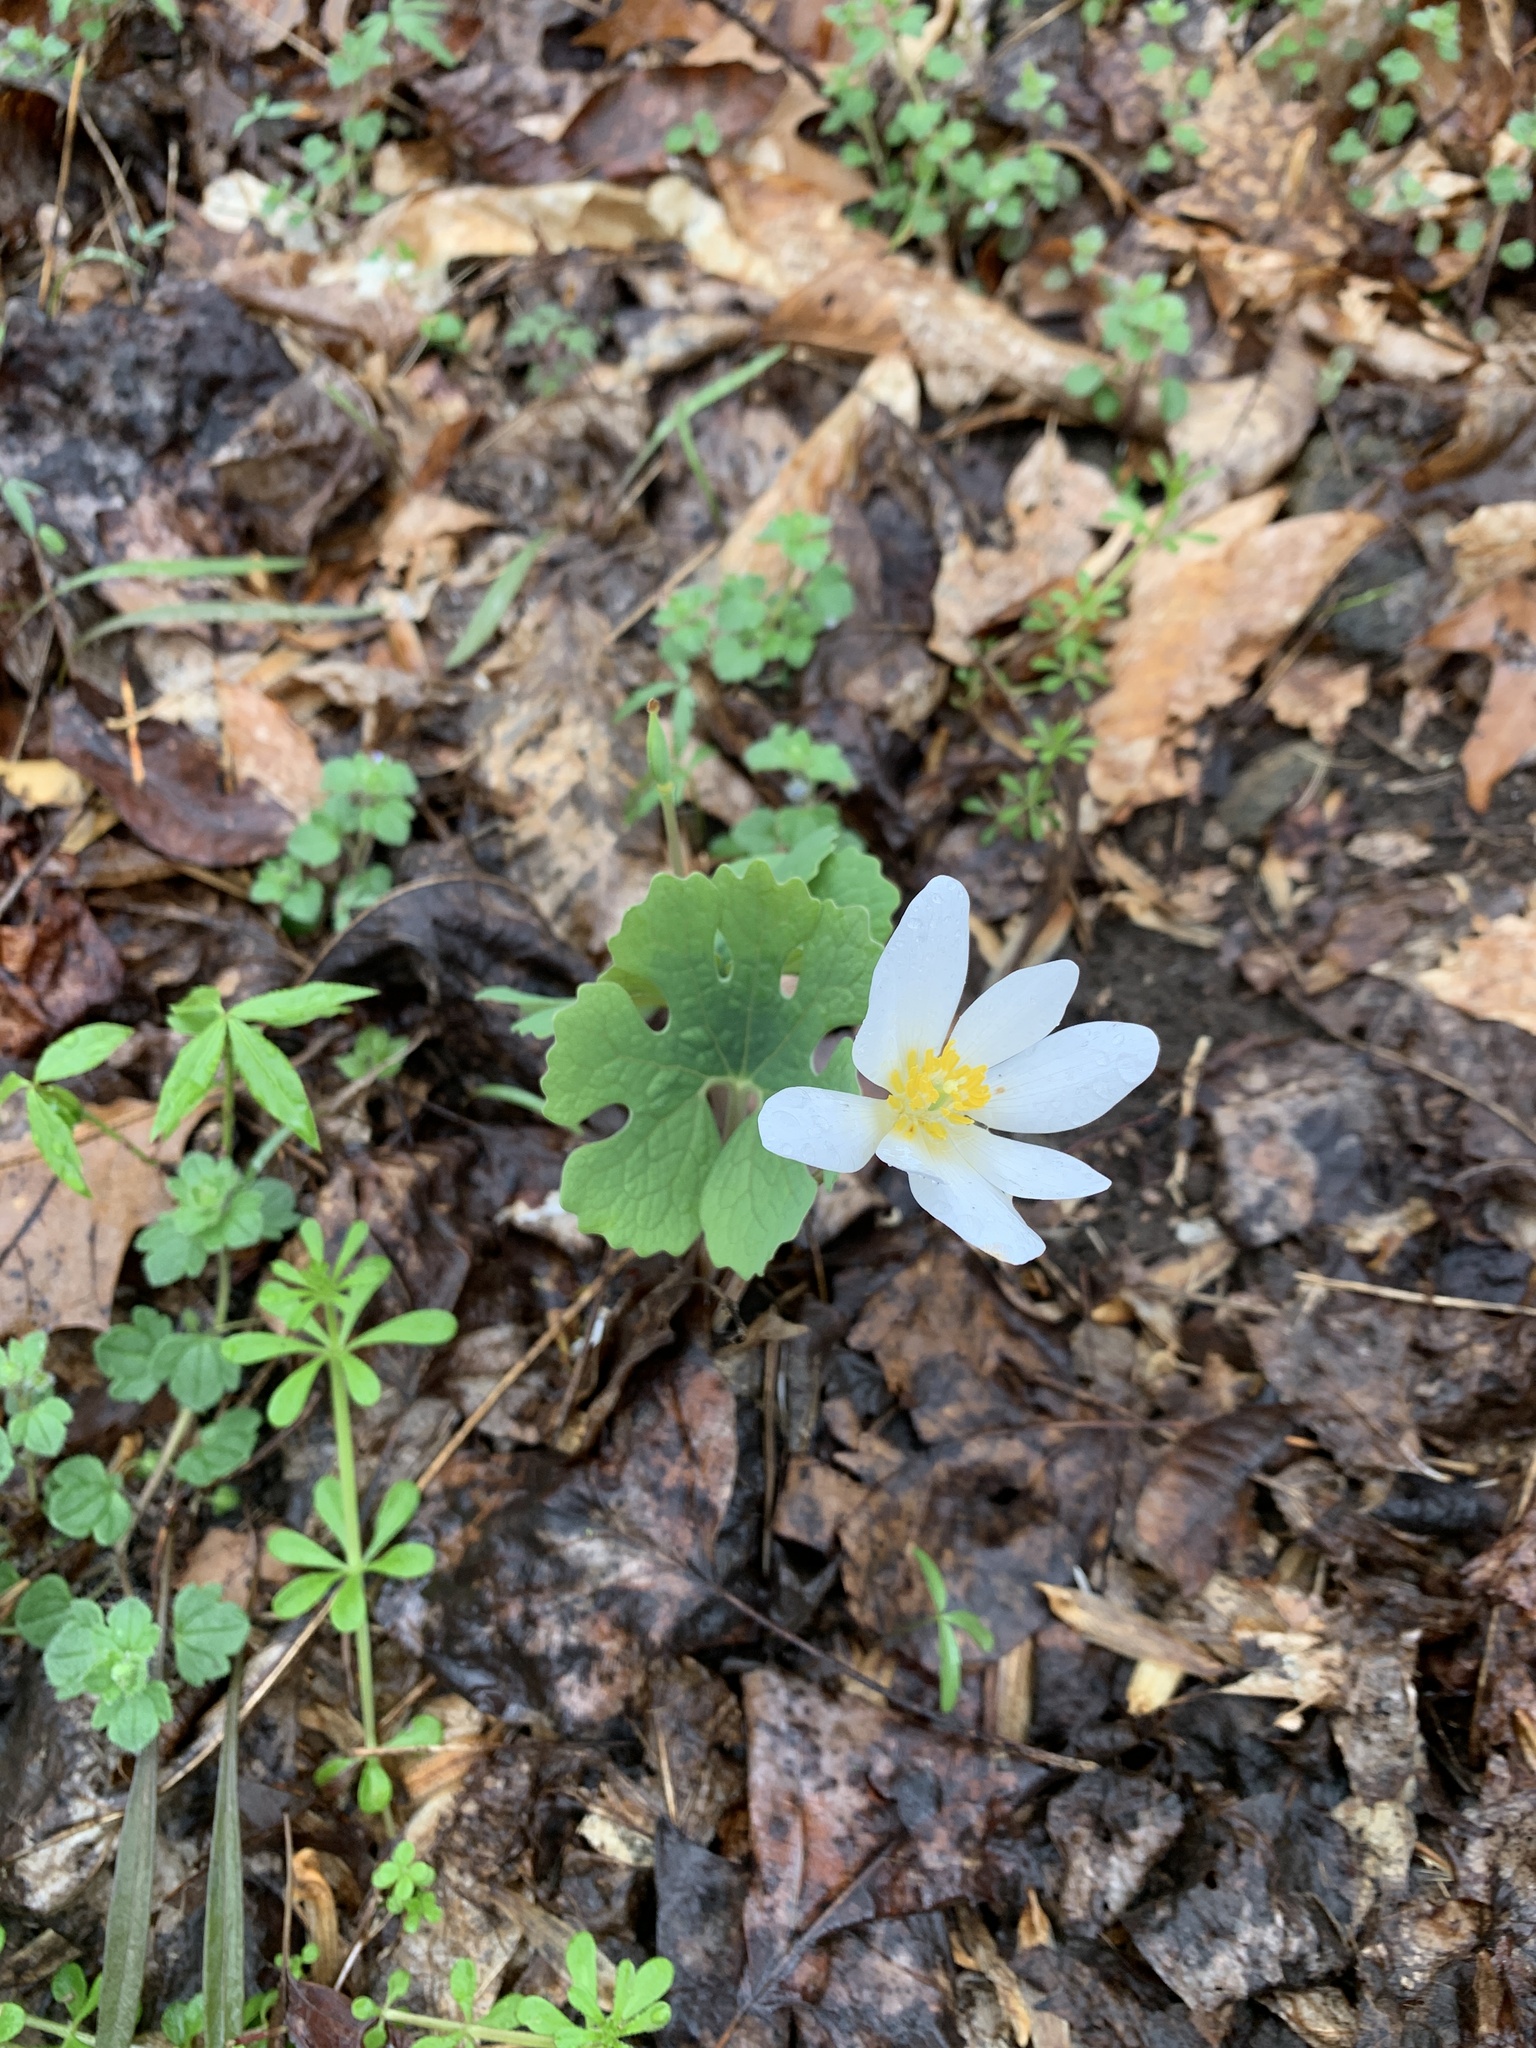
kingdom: Plantae
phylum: Tracheophyta
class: Magnoliopsida
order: Ranunculales
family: Papaveraceae
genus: Sanguinaria
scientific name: Sanguinaria canadensis
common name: Bloodroot
